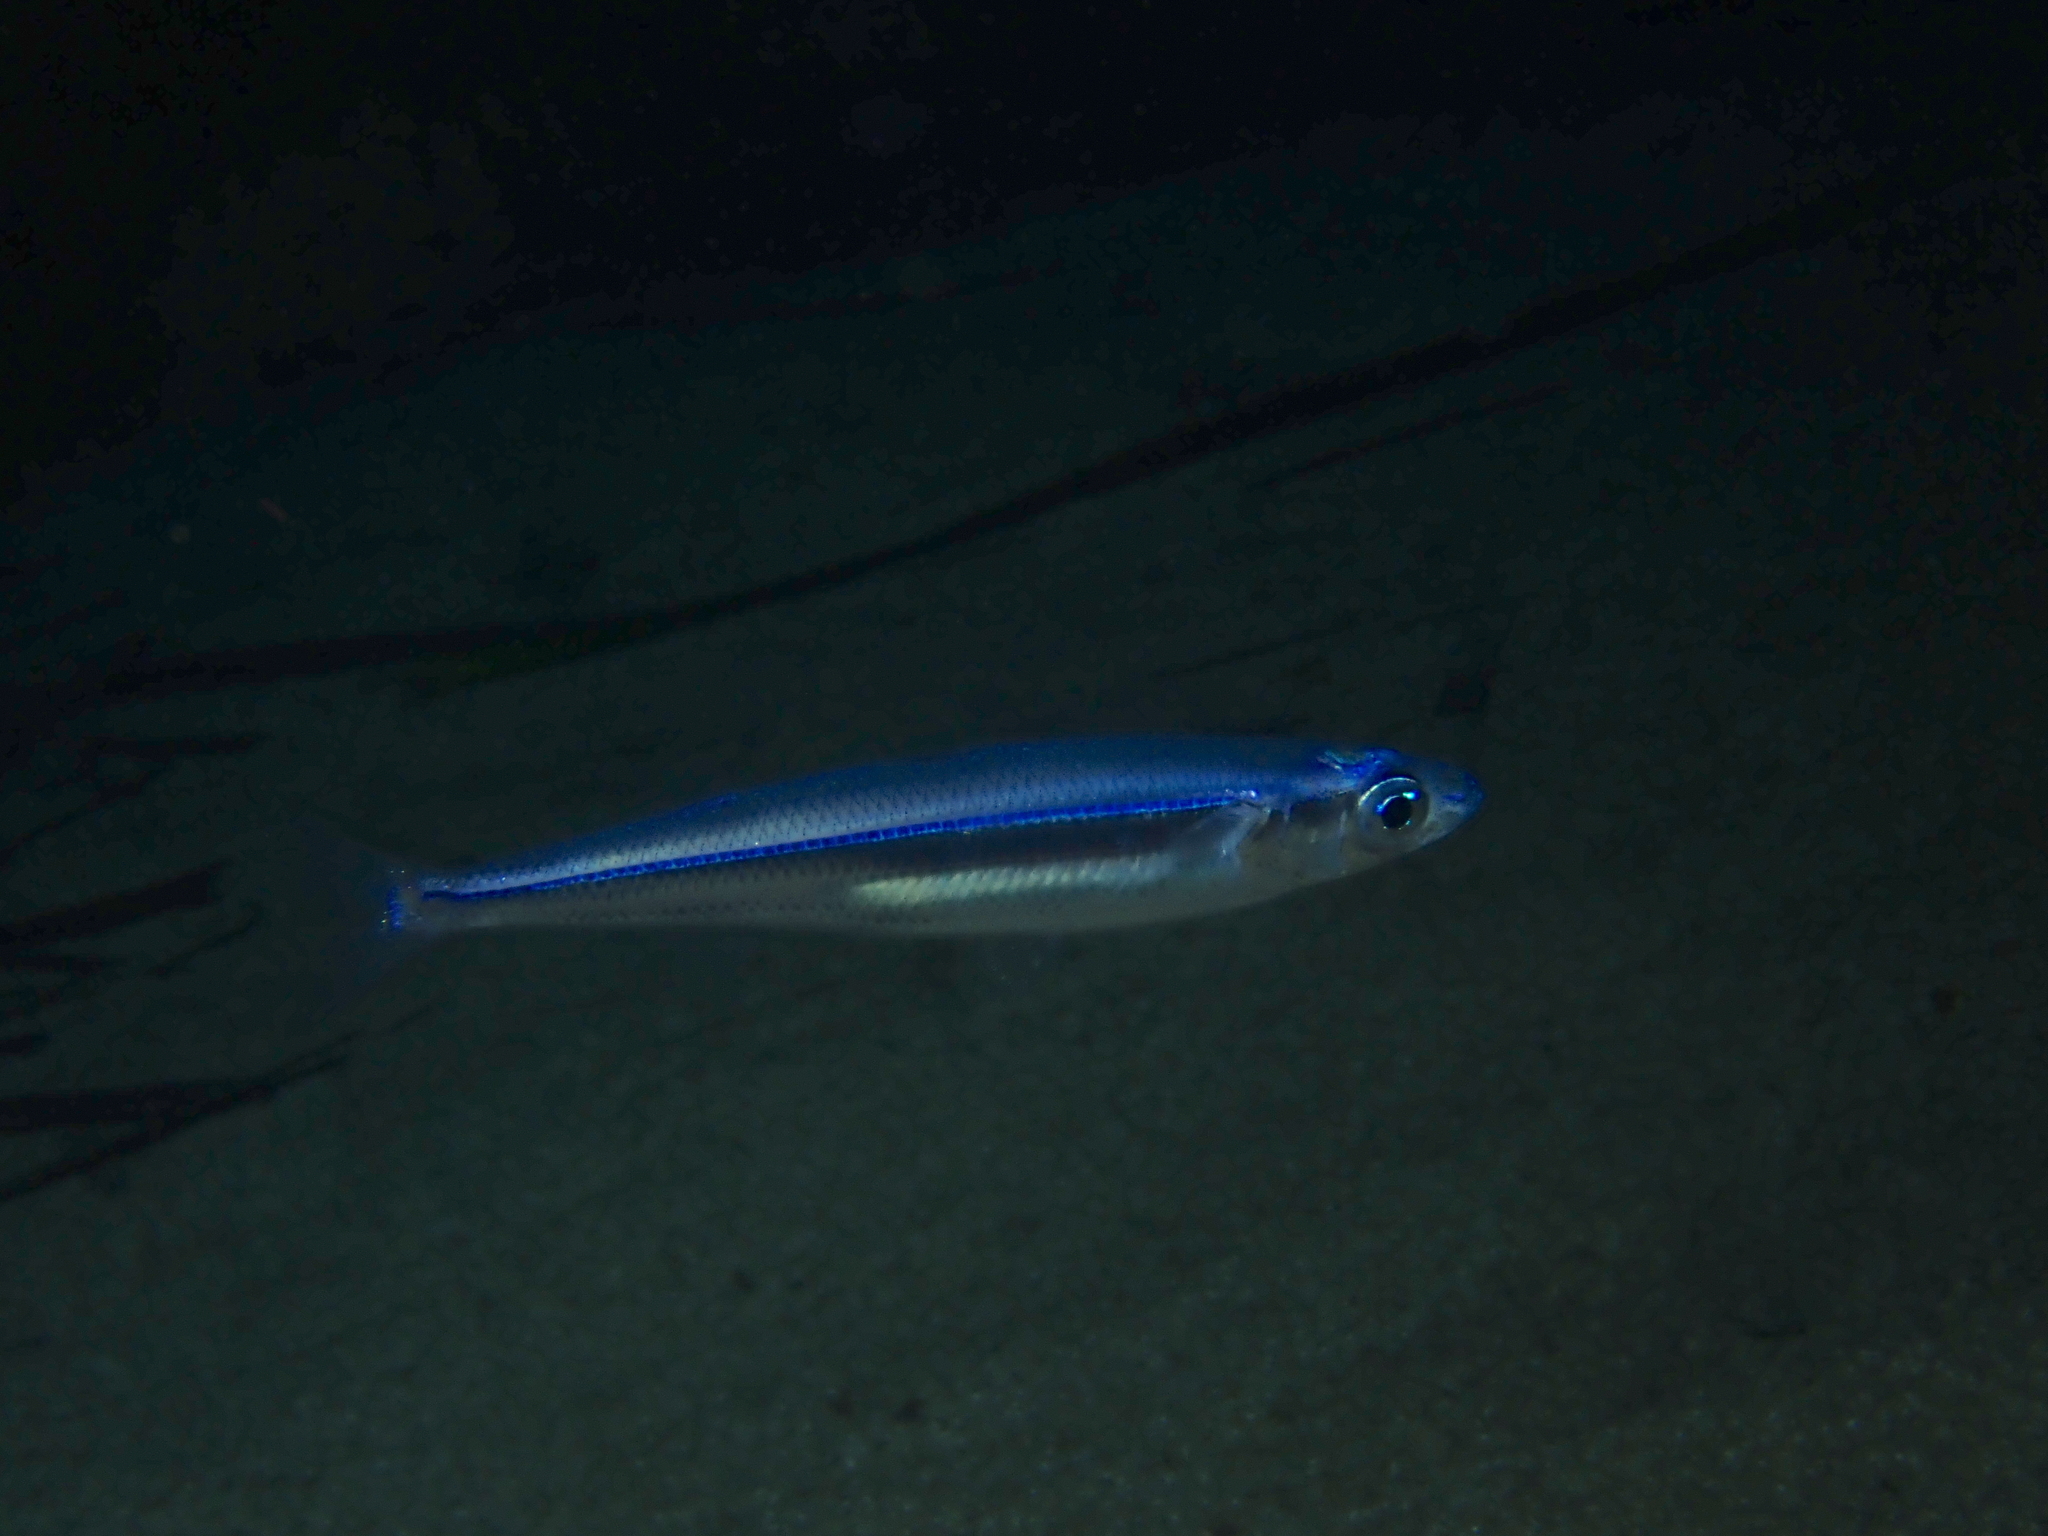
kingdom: Animalia
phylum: Chordata
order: Atheriniformes
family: Atherinidae
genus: Atherina
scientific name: Atherina hepsetus
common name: Mediterranean sand smelt
